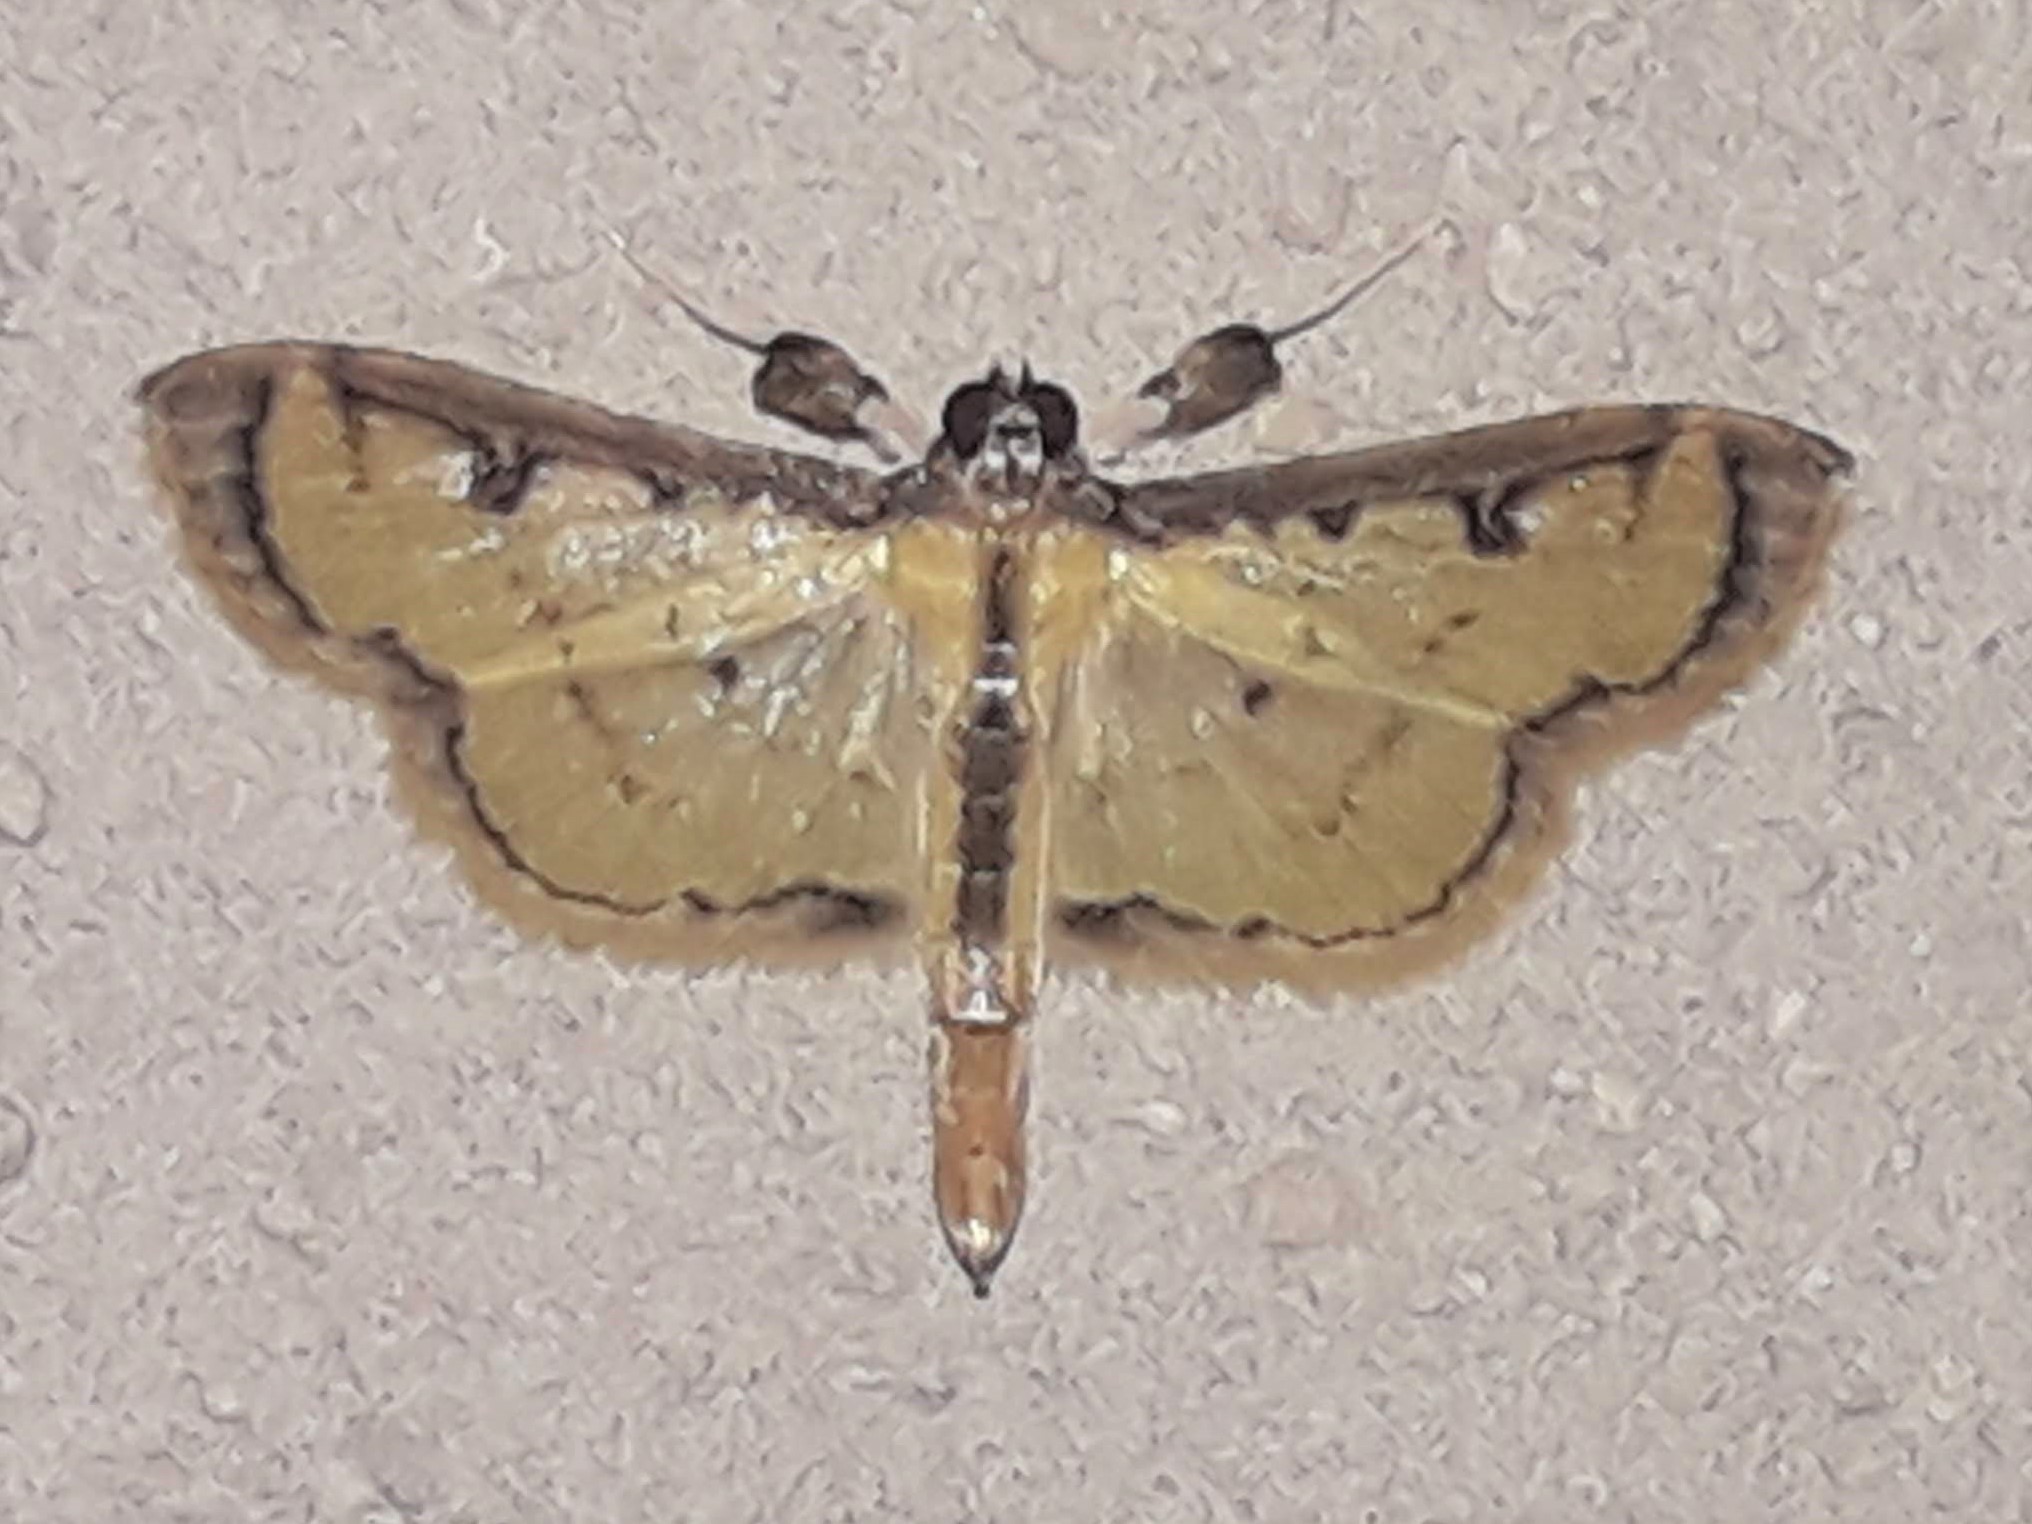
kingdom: Animalia
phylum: Arthropoda
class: Insecta
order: Lepidoptera
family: Crambidae
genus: Goniorhynchus
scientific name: Goniorhynchus salaconalis
